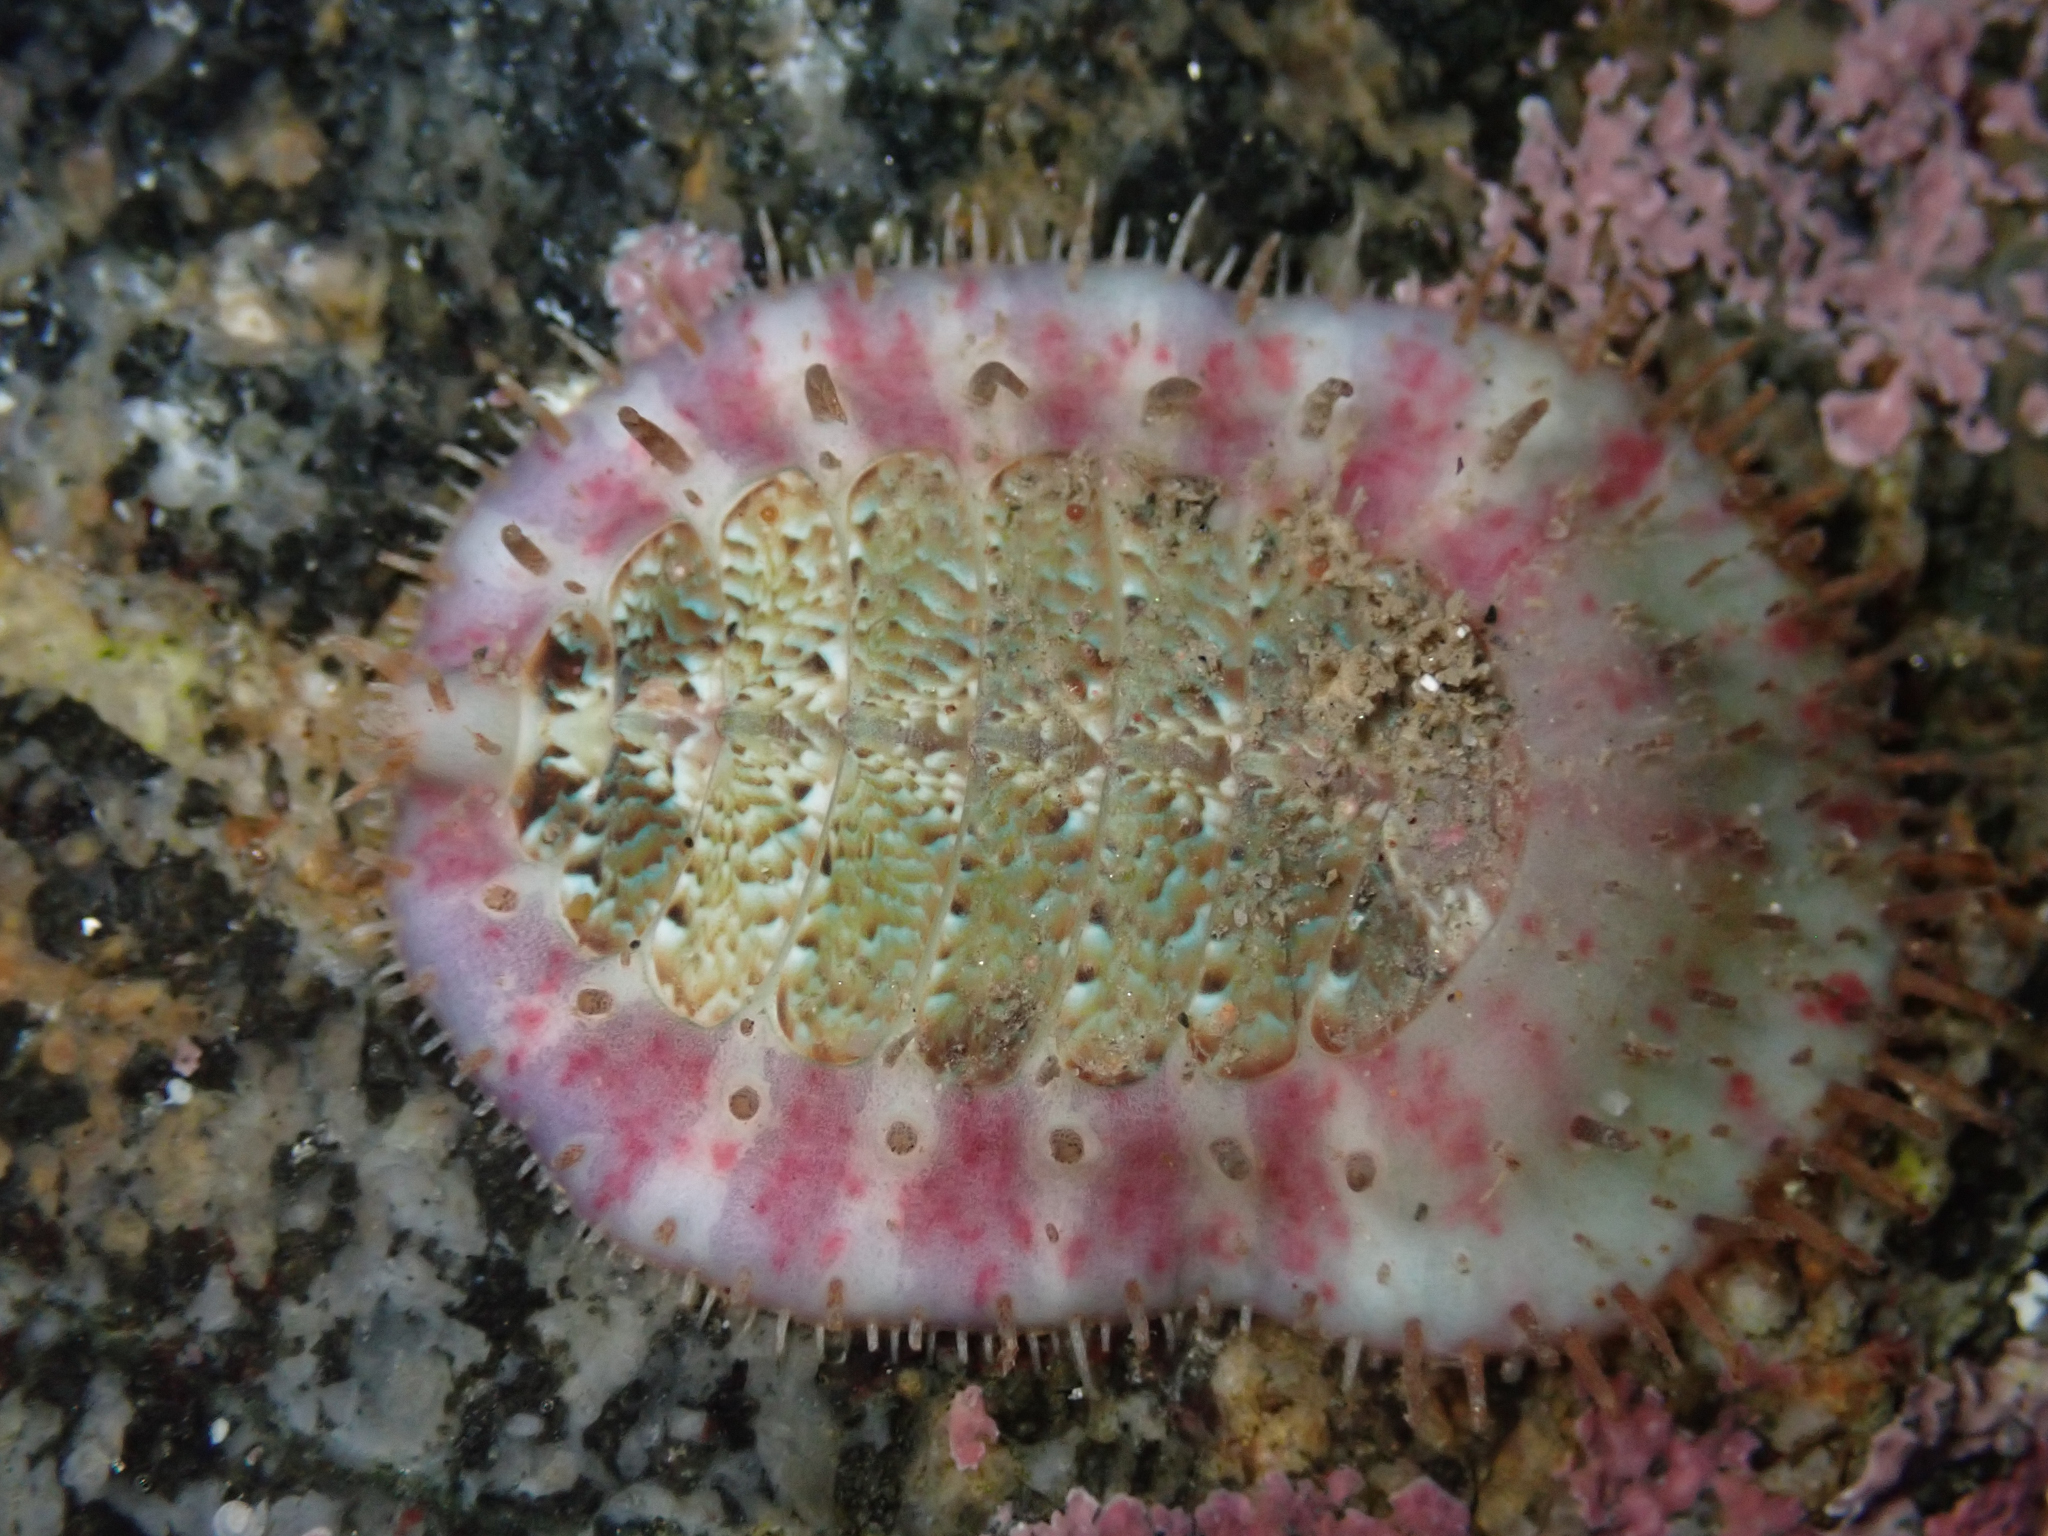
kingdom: Animalia
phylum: Mollusca
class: Polyplacophora
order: Chitonida
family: Mopaliidae
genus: Placiphorella
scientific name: Placiphorella velata
